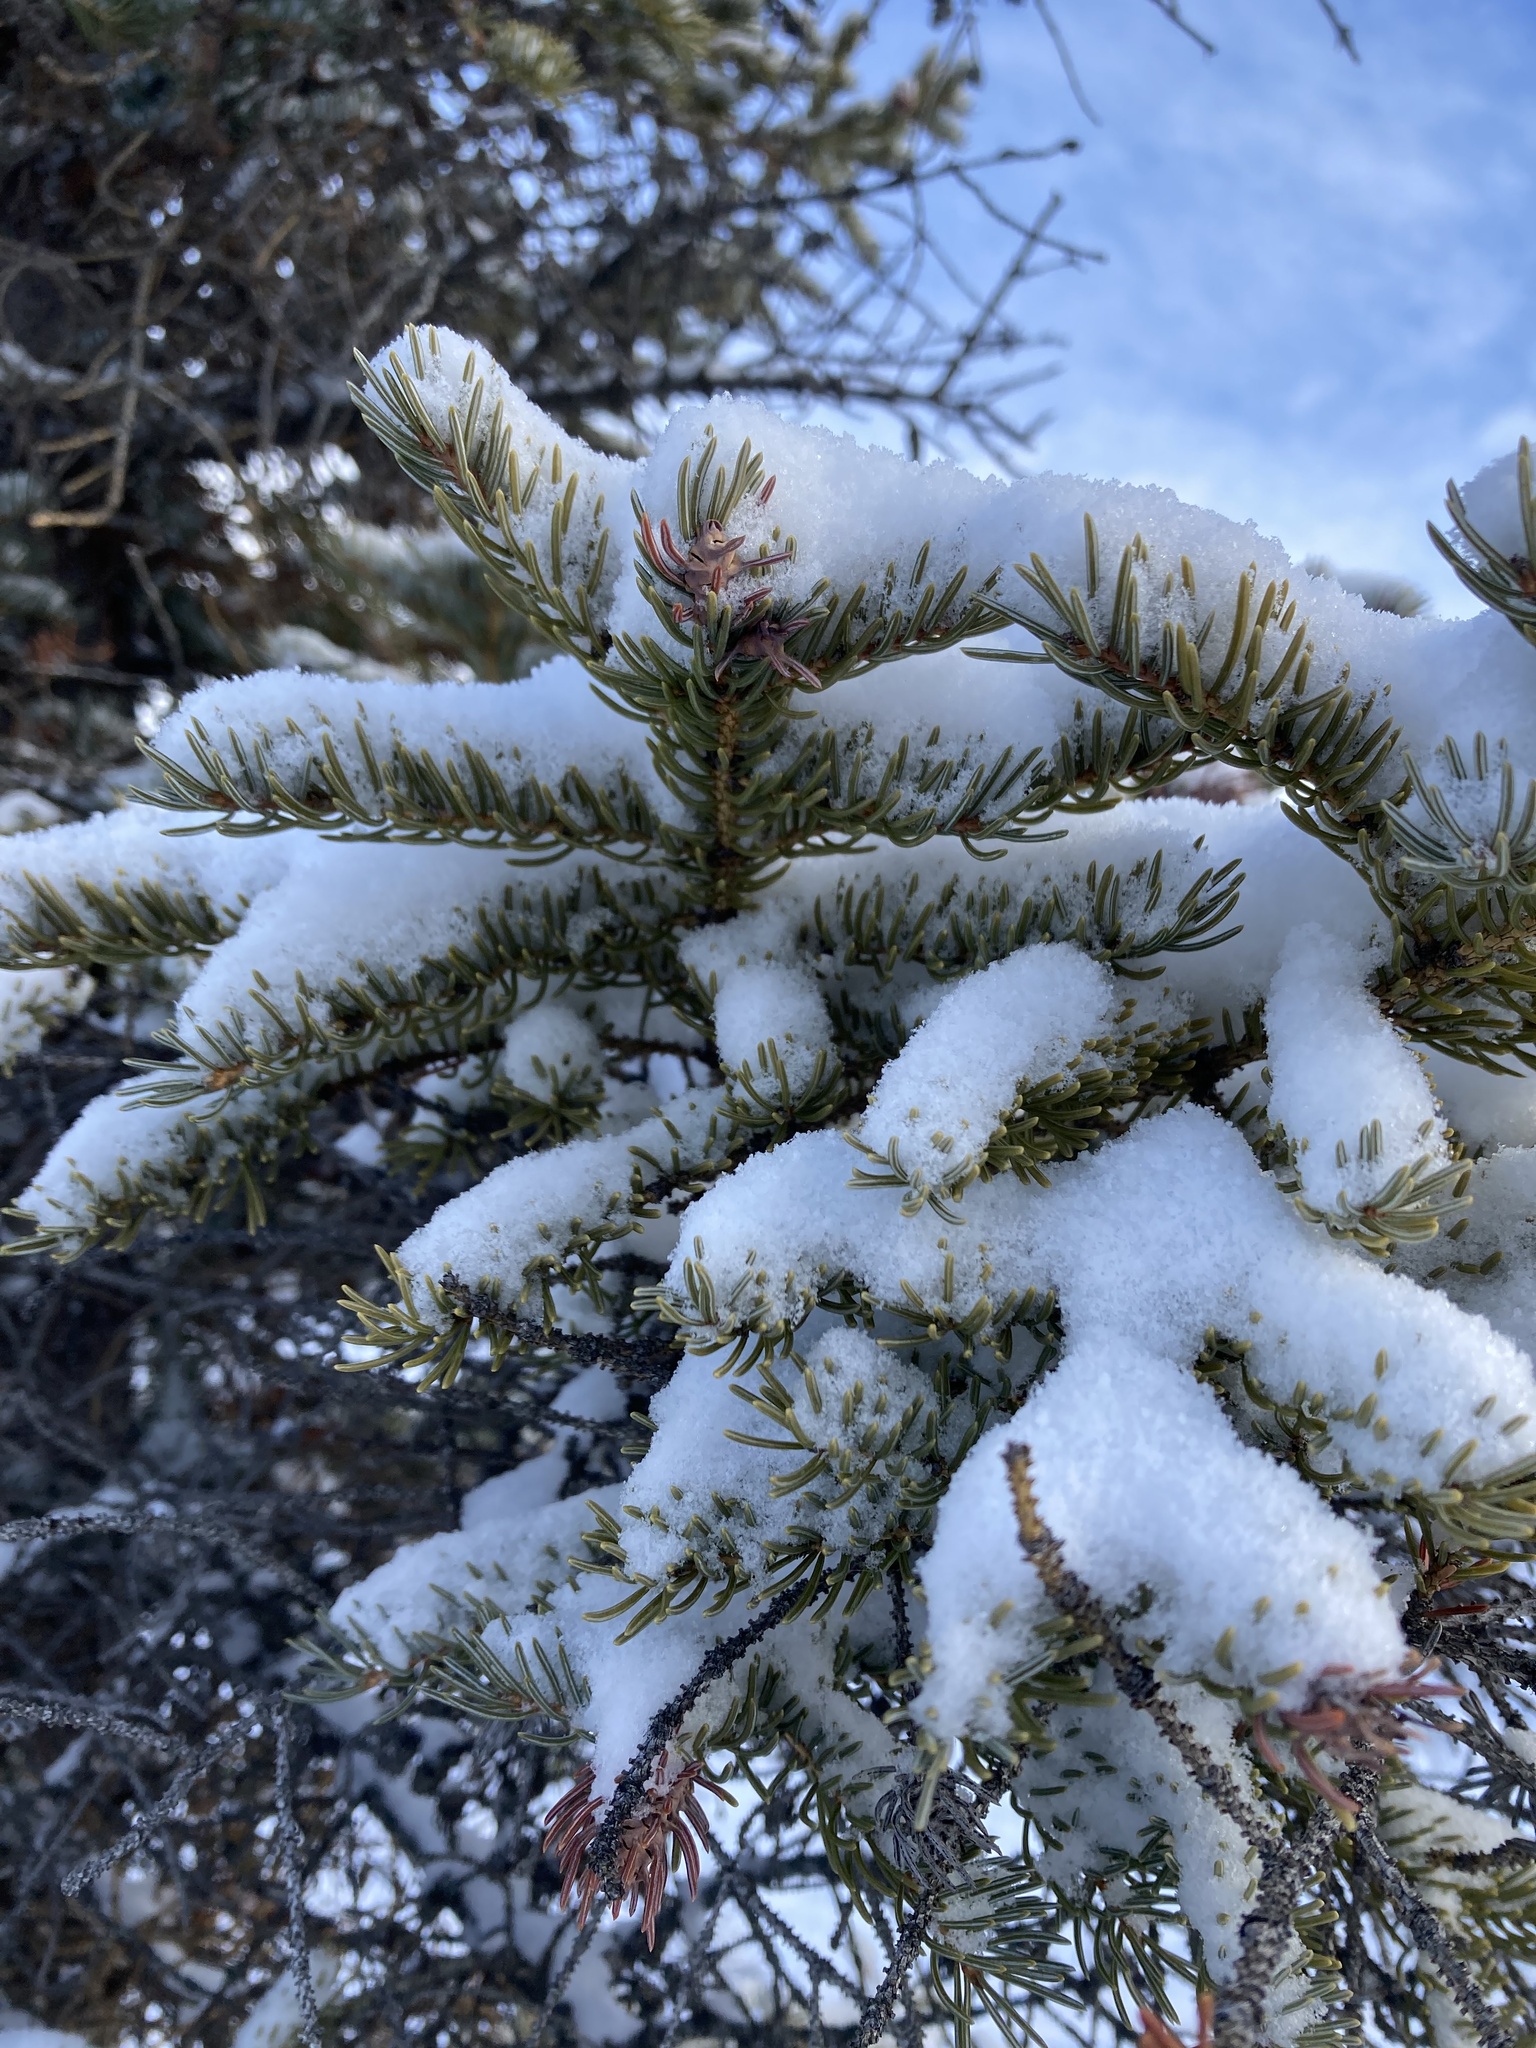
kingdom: Plantae
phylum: Tracheophyta
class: Pinopsida
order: Pinales
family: Pinaceae
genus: Picea
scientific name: Picea mariana
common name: Black spruce
